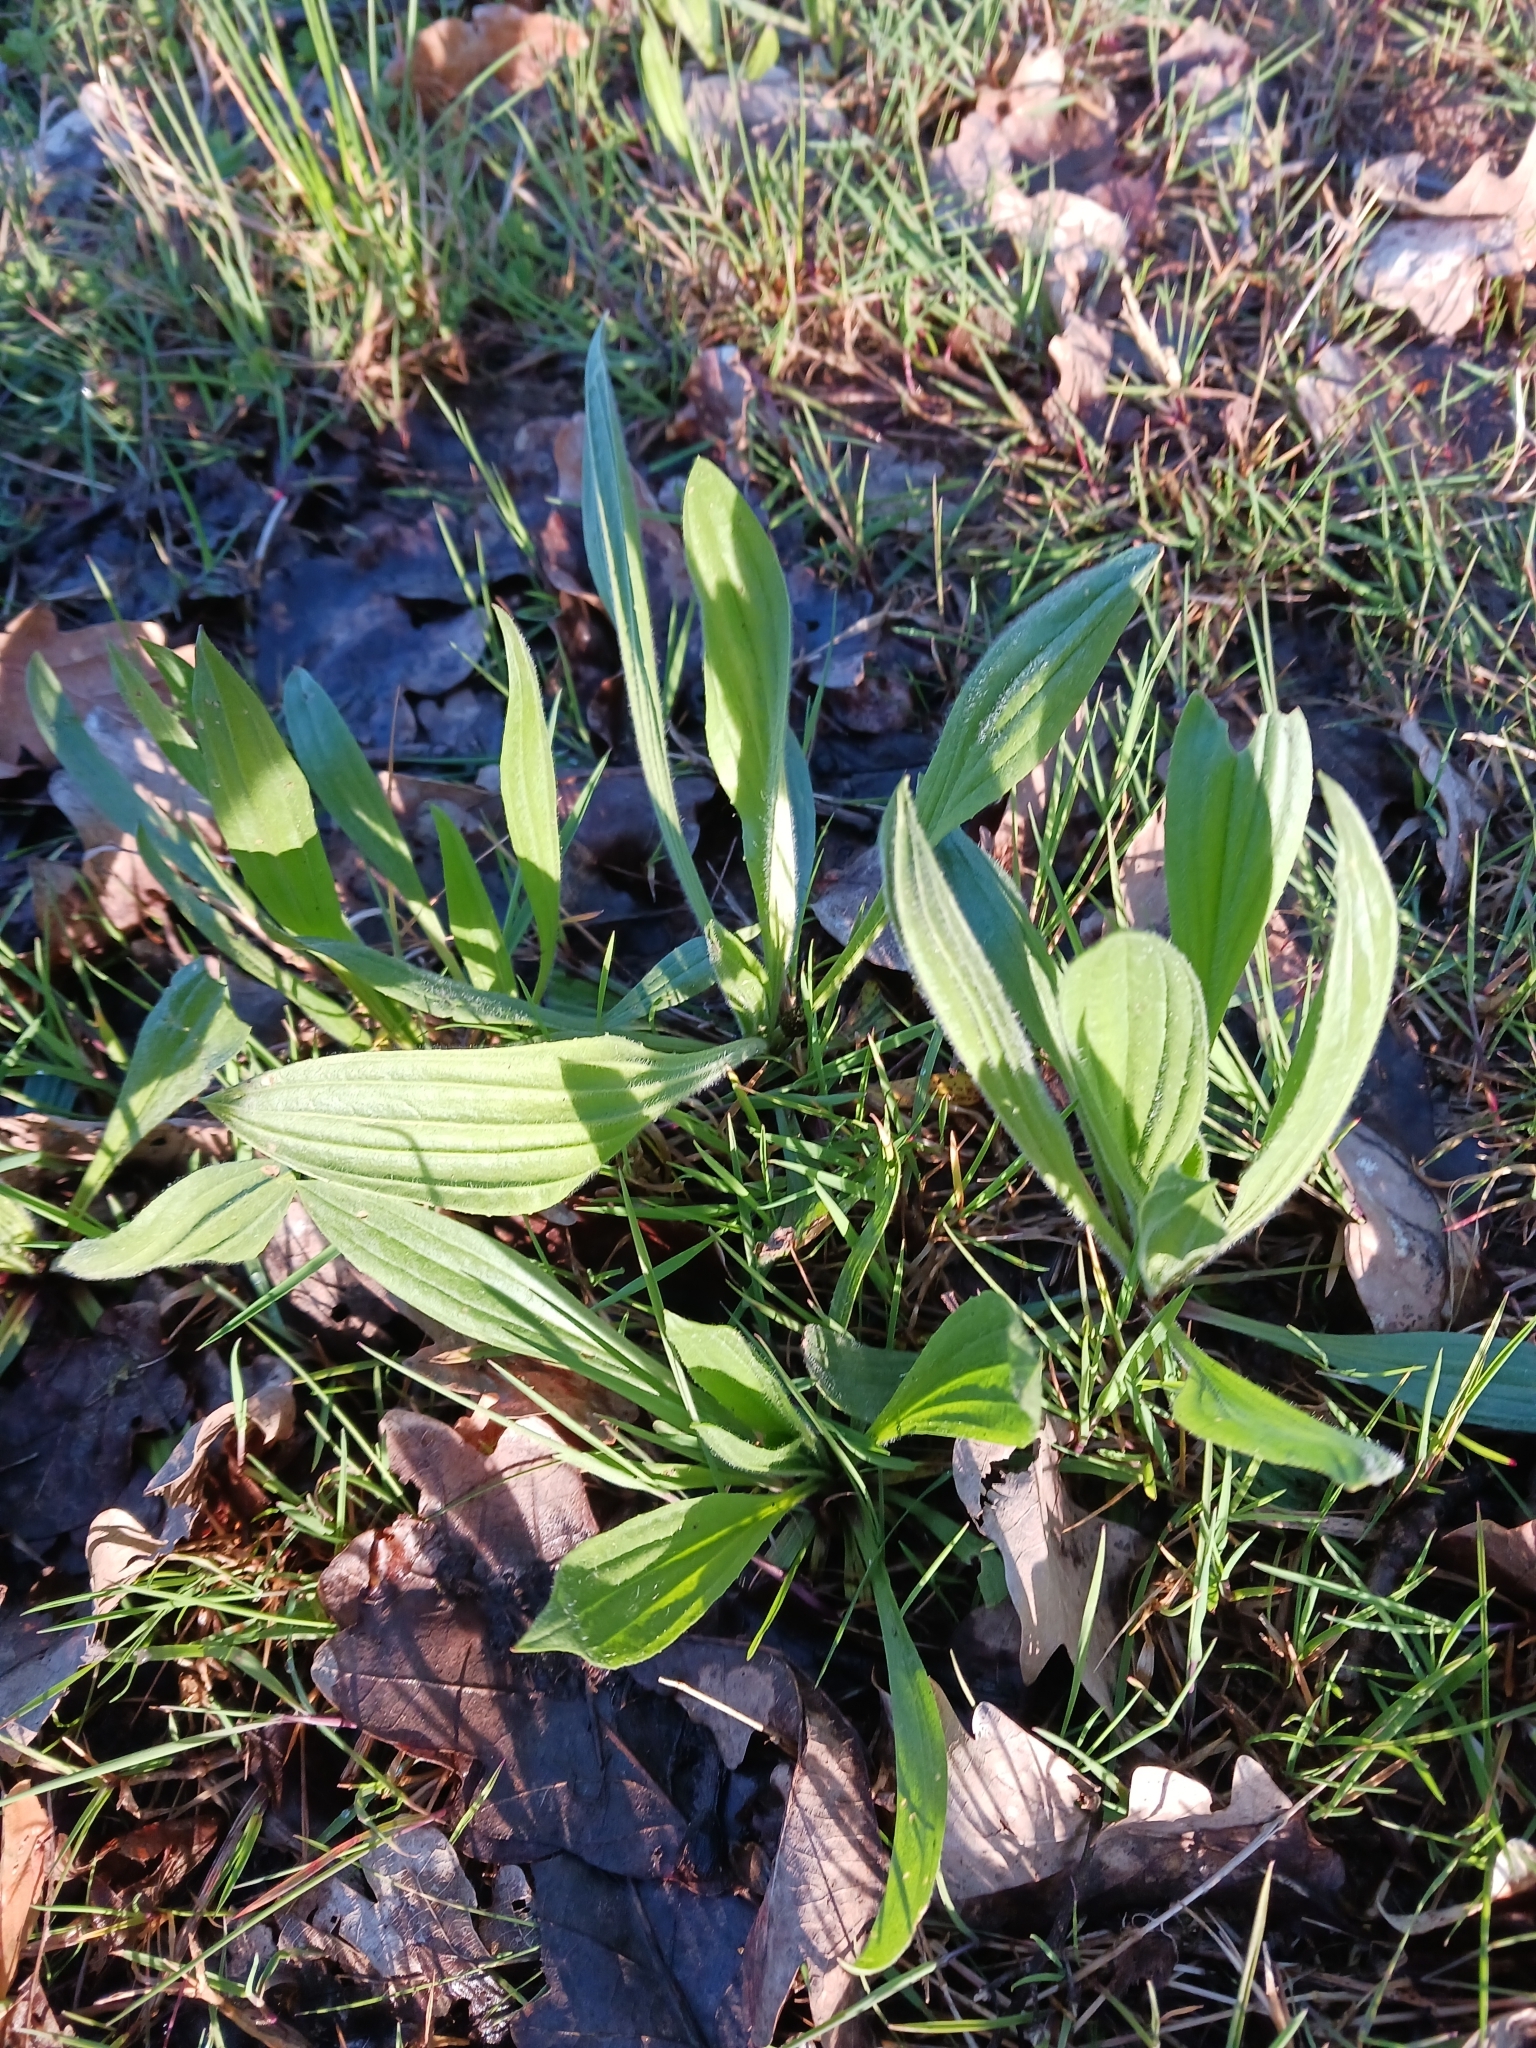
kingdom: Plantae
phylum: Tracheophyta
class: Magnoliopsida
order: Lamiales
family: Plantaginaceae
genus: Plantago
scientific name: Plantago lanceolata
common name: Ribwort plantain
